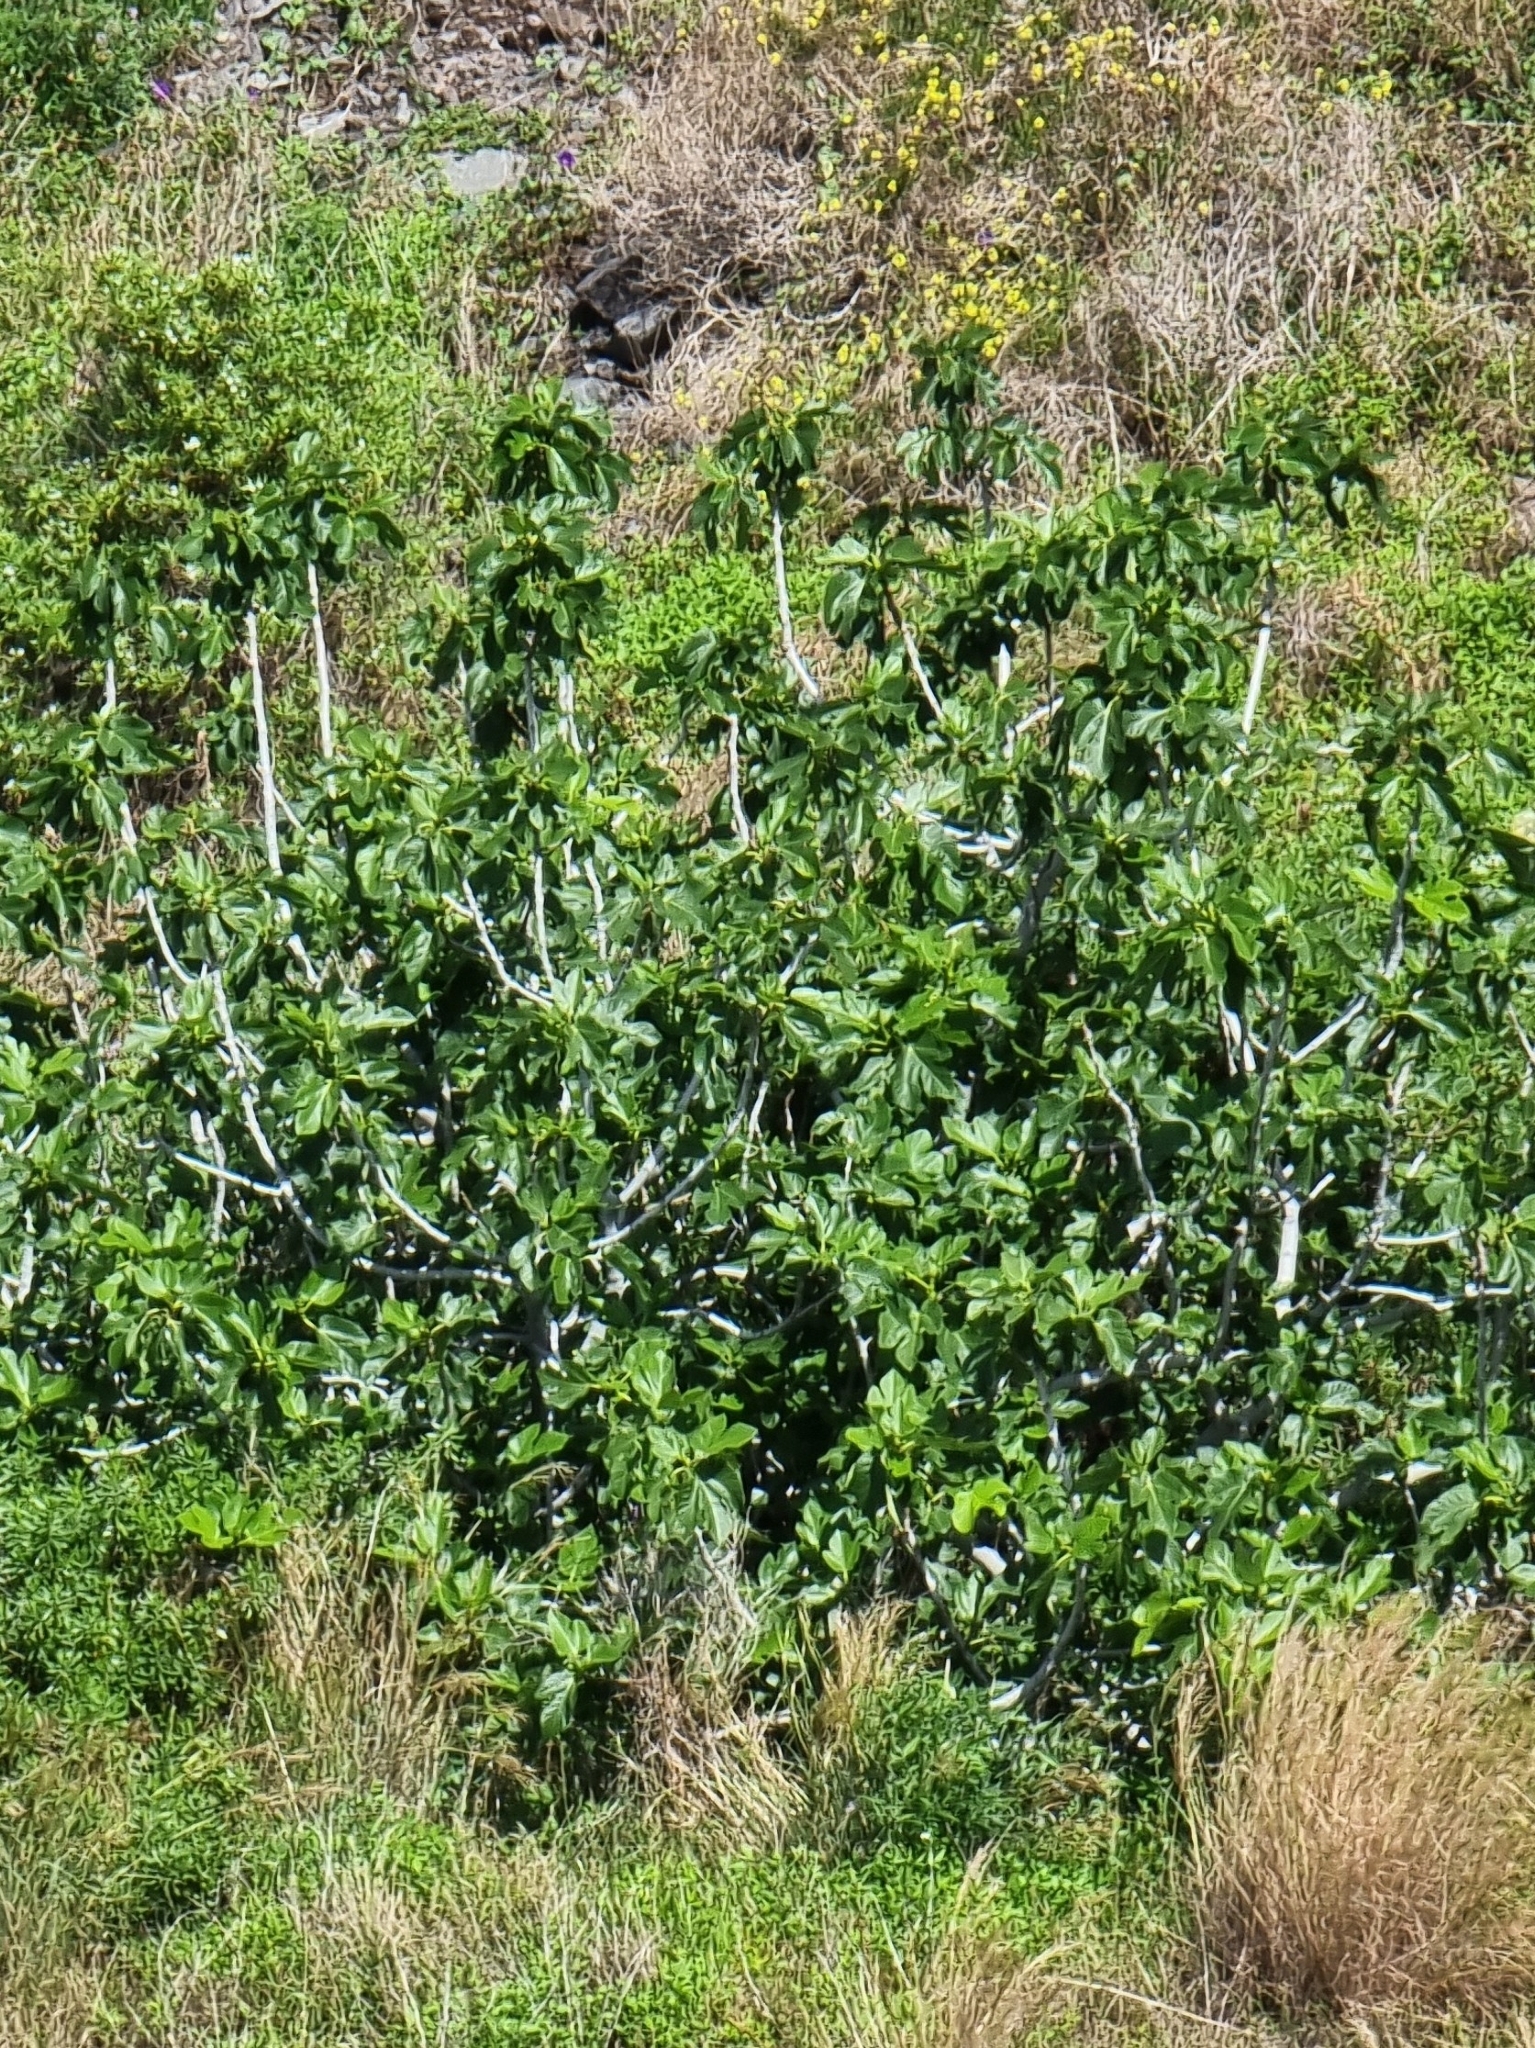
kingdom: Plantae
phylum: Tracheophyta
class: Magnoliopsida
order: Rosales
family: Moraceae
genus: Ficus
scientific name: Ficus carica
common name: Fig
